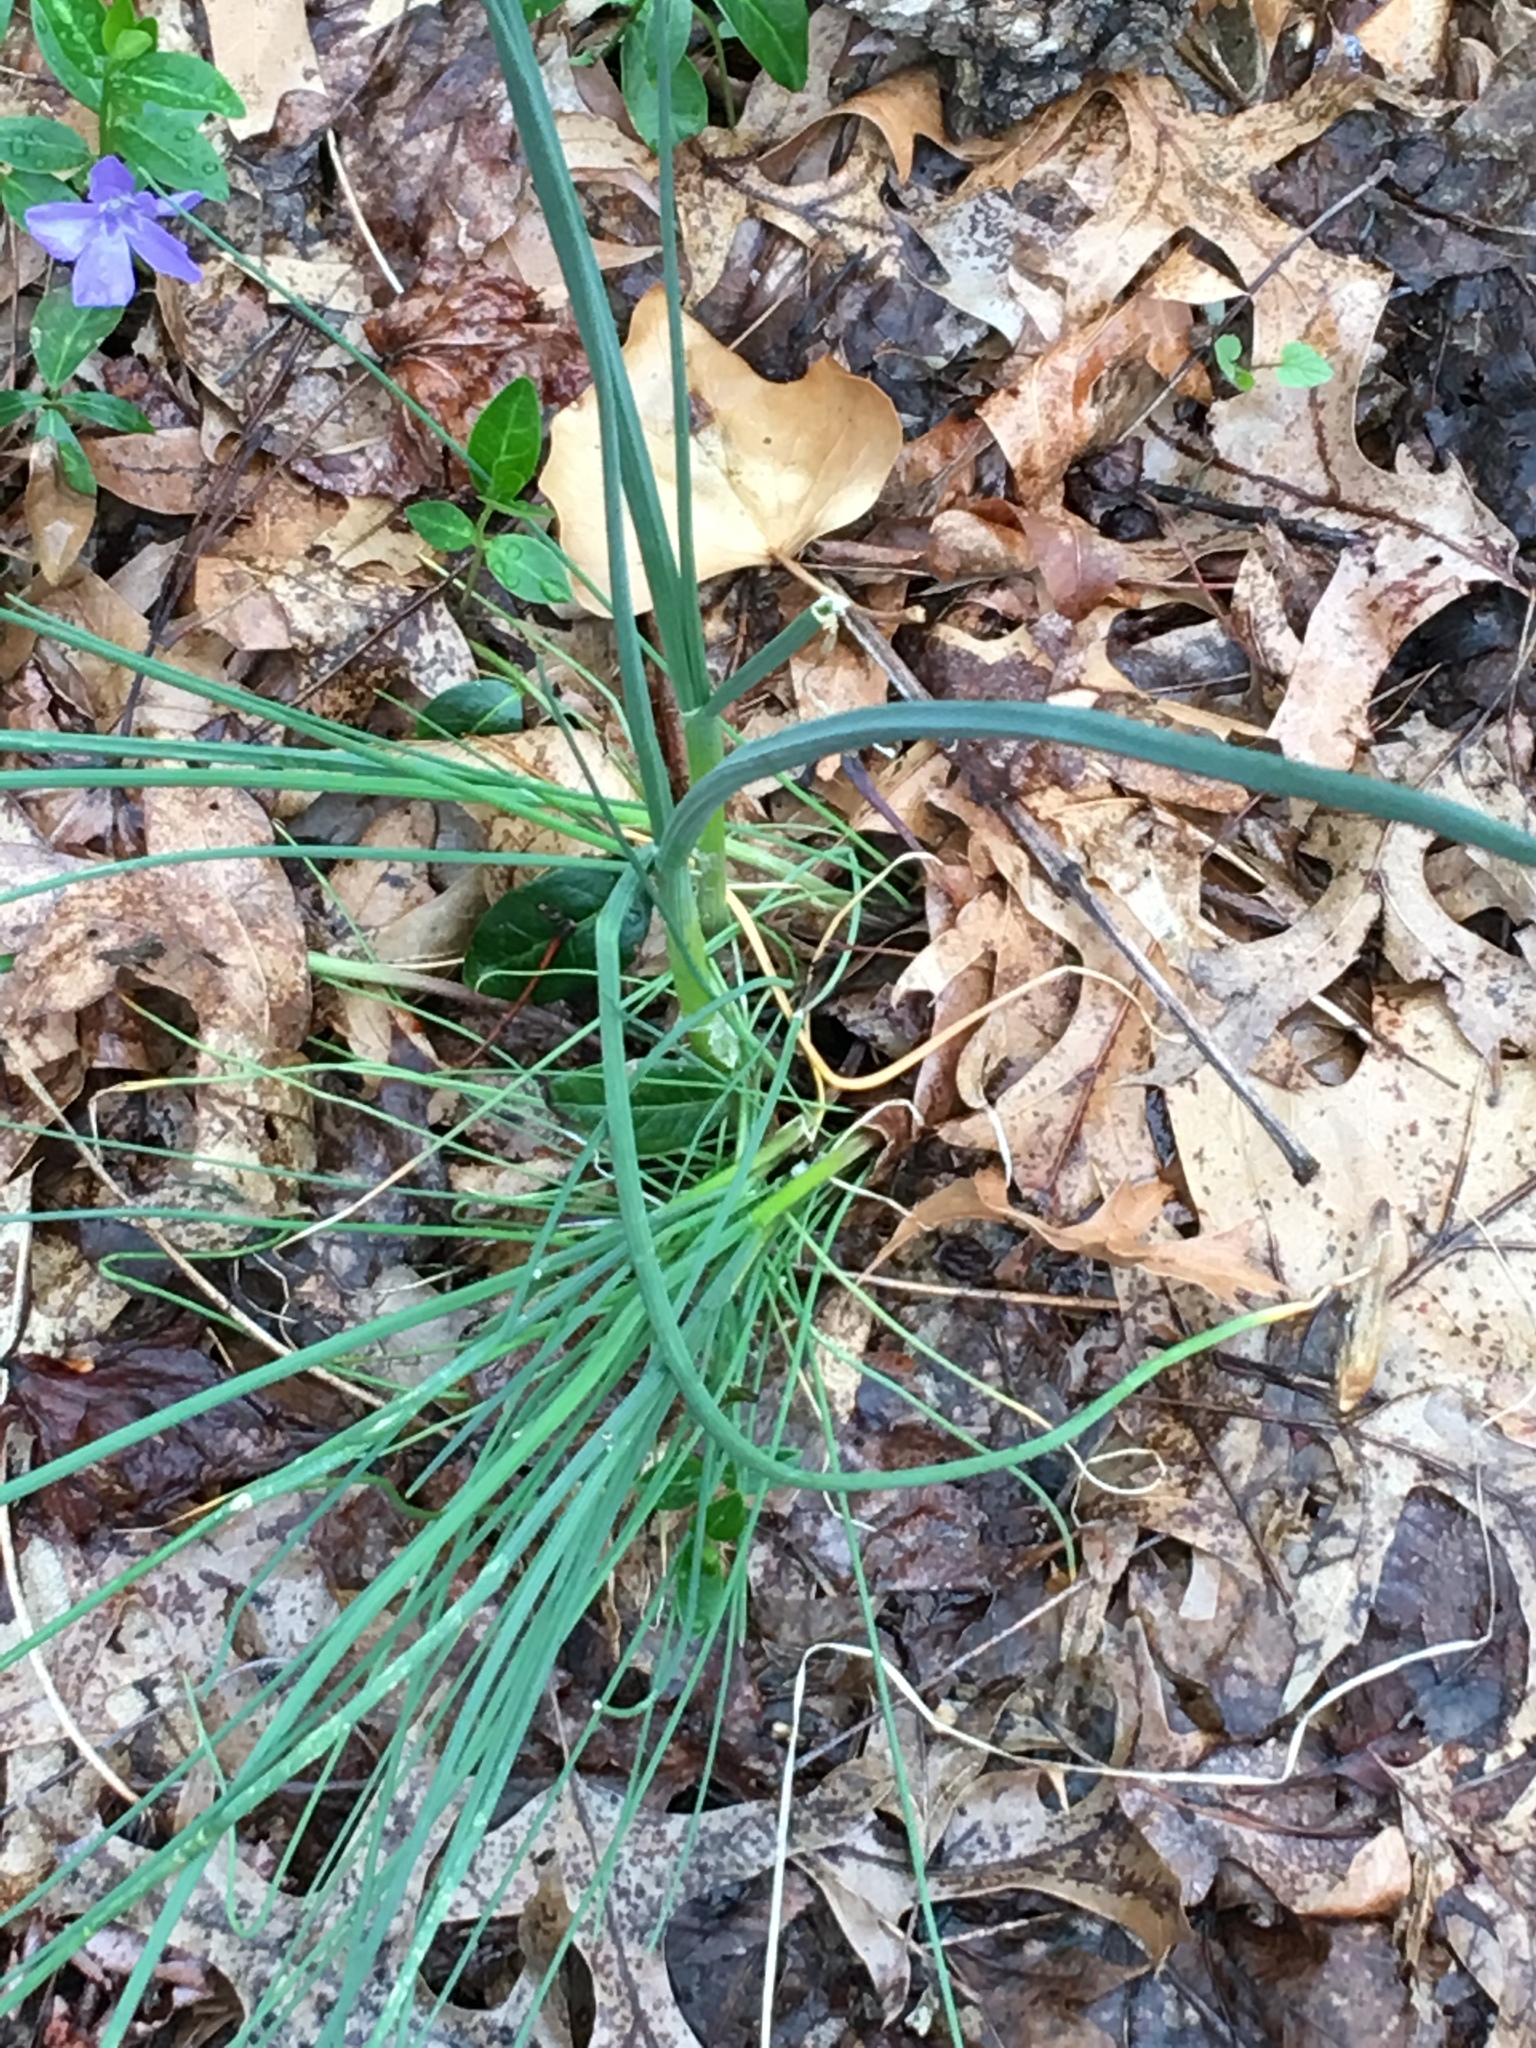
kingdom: Plantae
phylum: Tracheophyta
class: Liliopsida
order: Asparagales
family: Amaryllidaceae
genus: Allium
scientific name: Allium vineale
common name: Crow garlic
